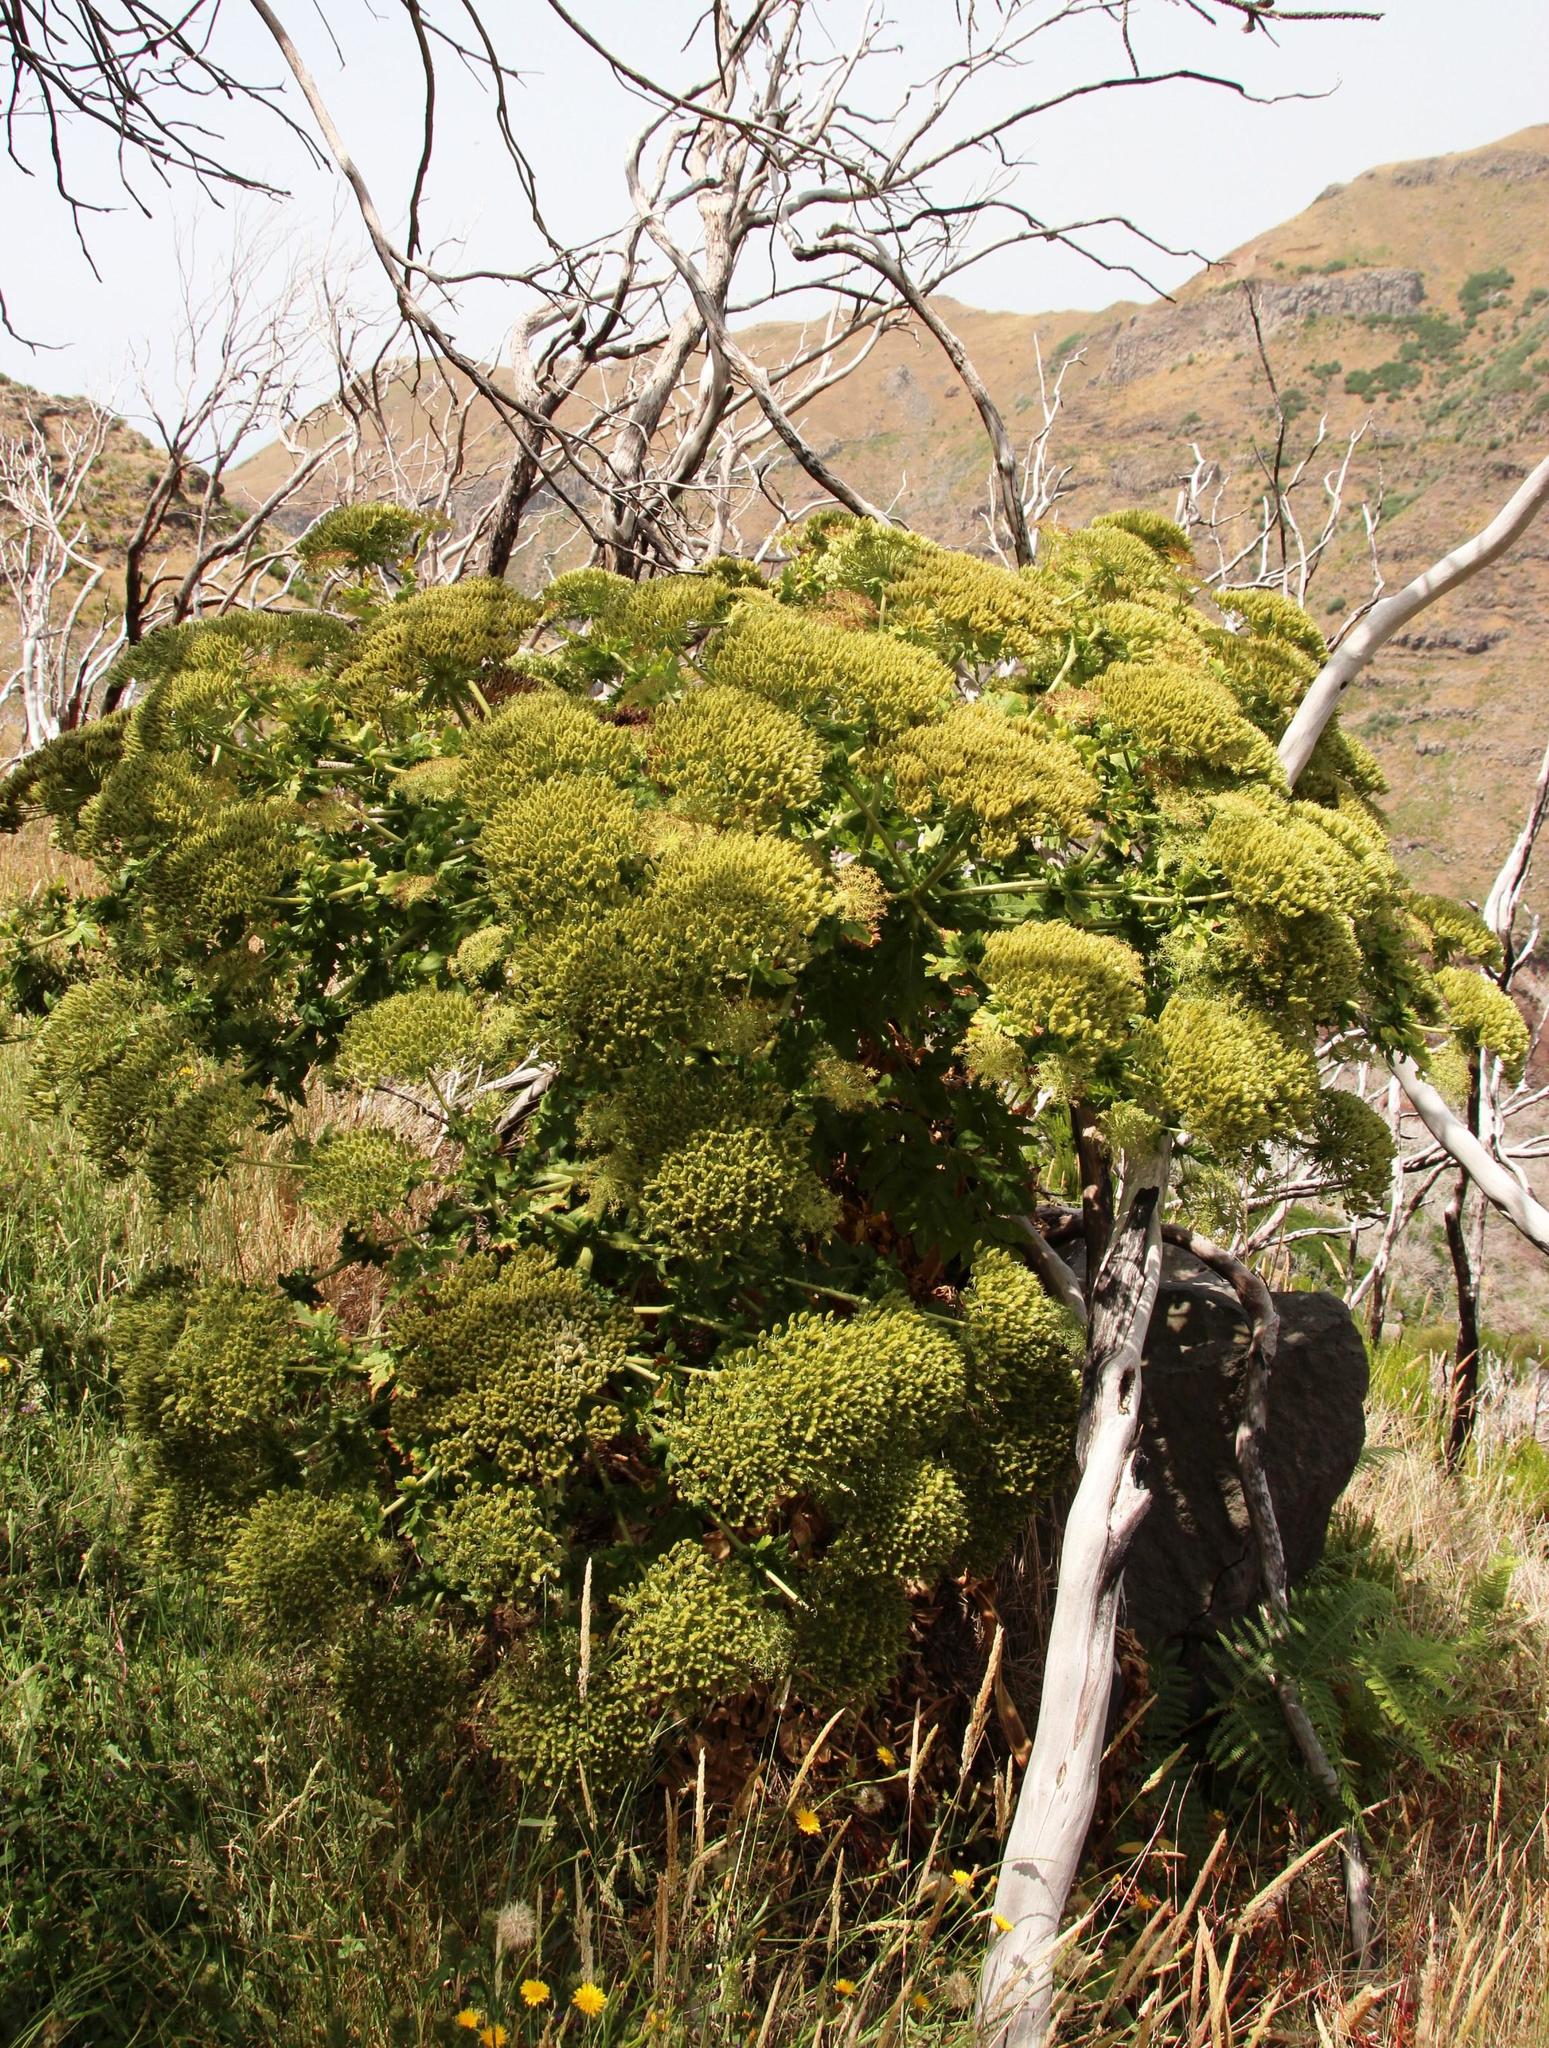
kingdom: Plantae
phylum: Tracheophyta
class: Magnoliopsida
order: Apiales
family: Apiaceae
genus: Daucus
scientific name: Daucus decipiens
